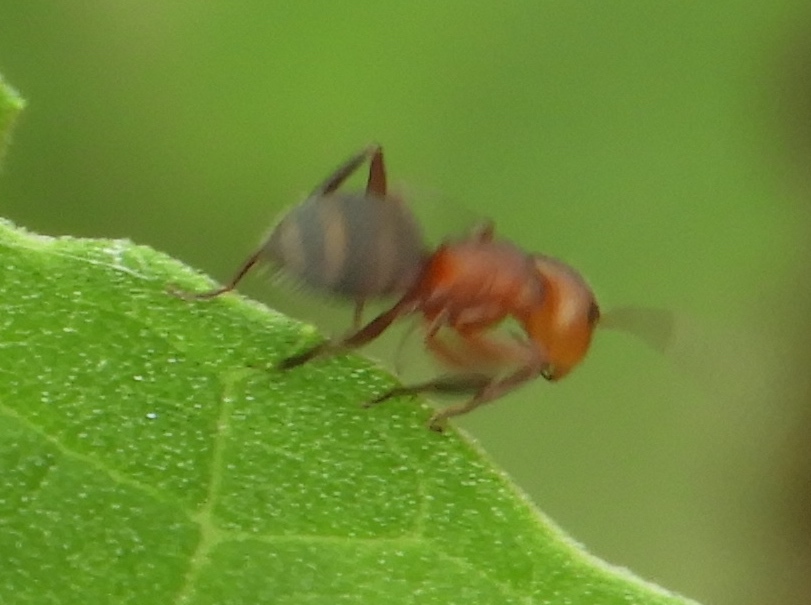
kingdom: Animalia
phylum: Arthropoda
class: Insecta
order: Hymenoptera
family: Formicidae
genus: Camponotus
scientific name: Camponotus rectangularis
